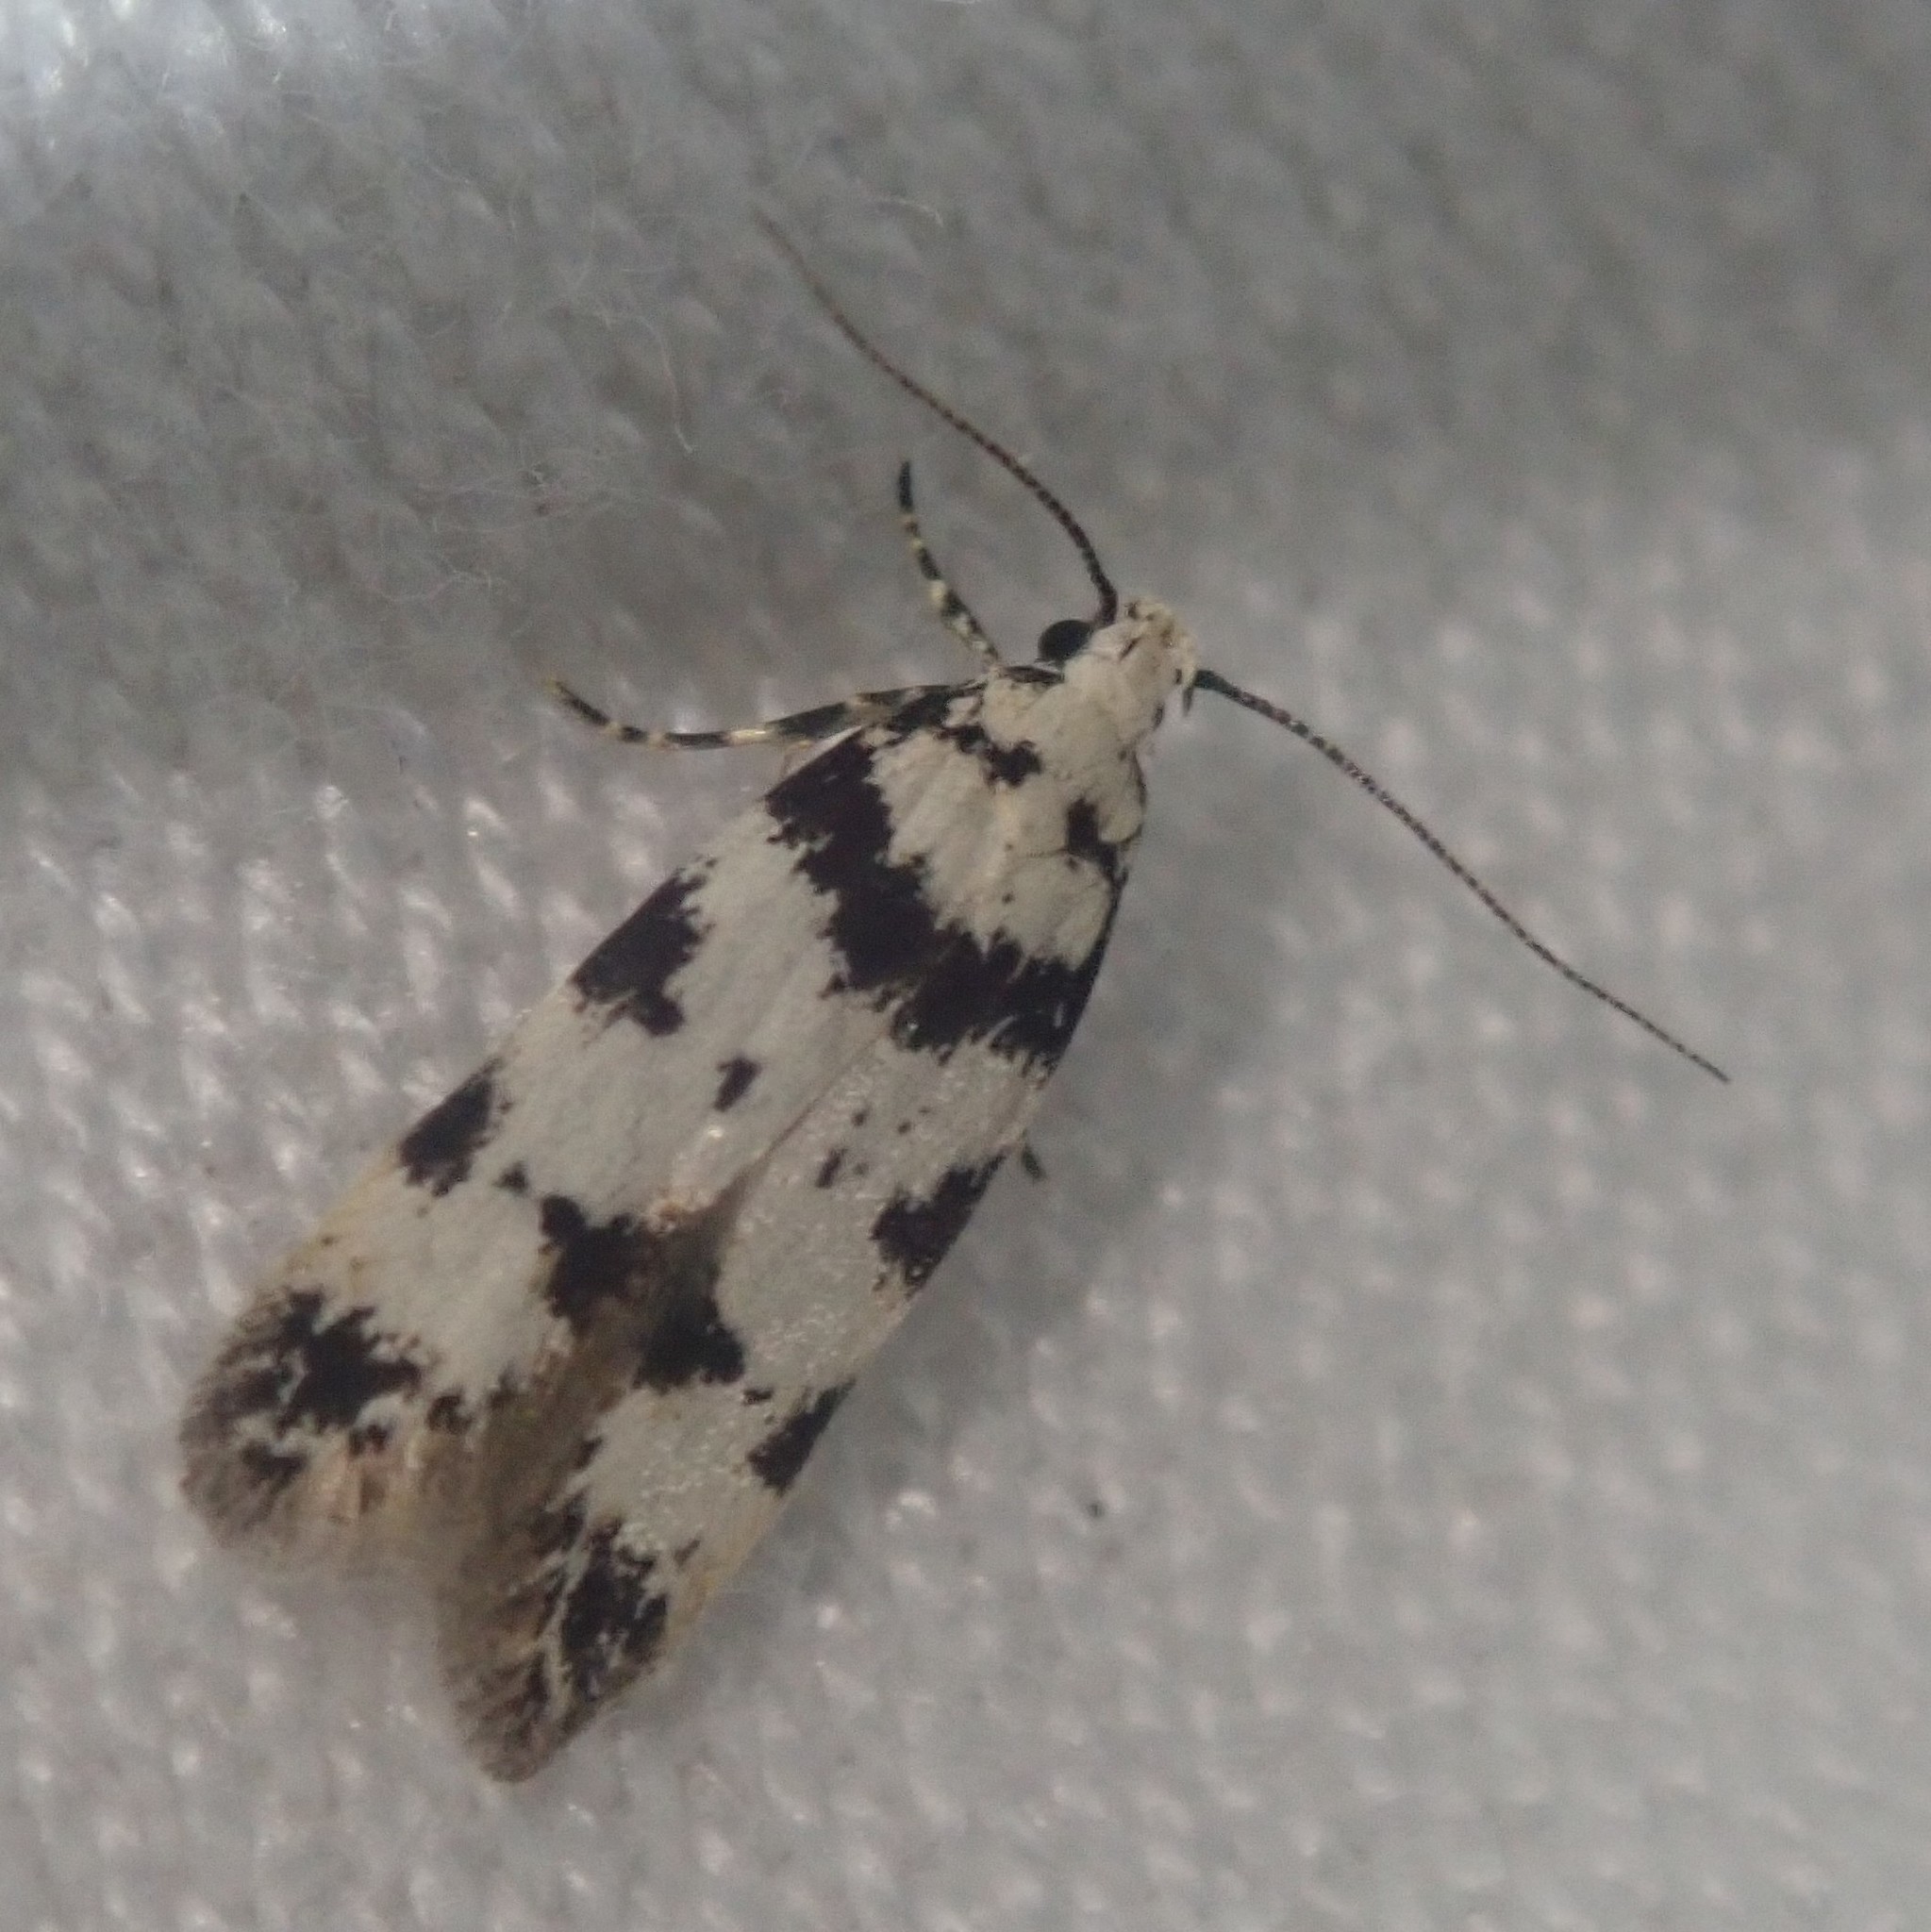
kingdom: Animalia
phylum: Arthropoda
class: Insecta
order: Lepidoptera
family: Gelechiidae
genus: Pseudotelphusa
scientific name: Pseudotelphusa scalella
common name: Black-spotted groundling
